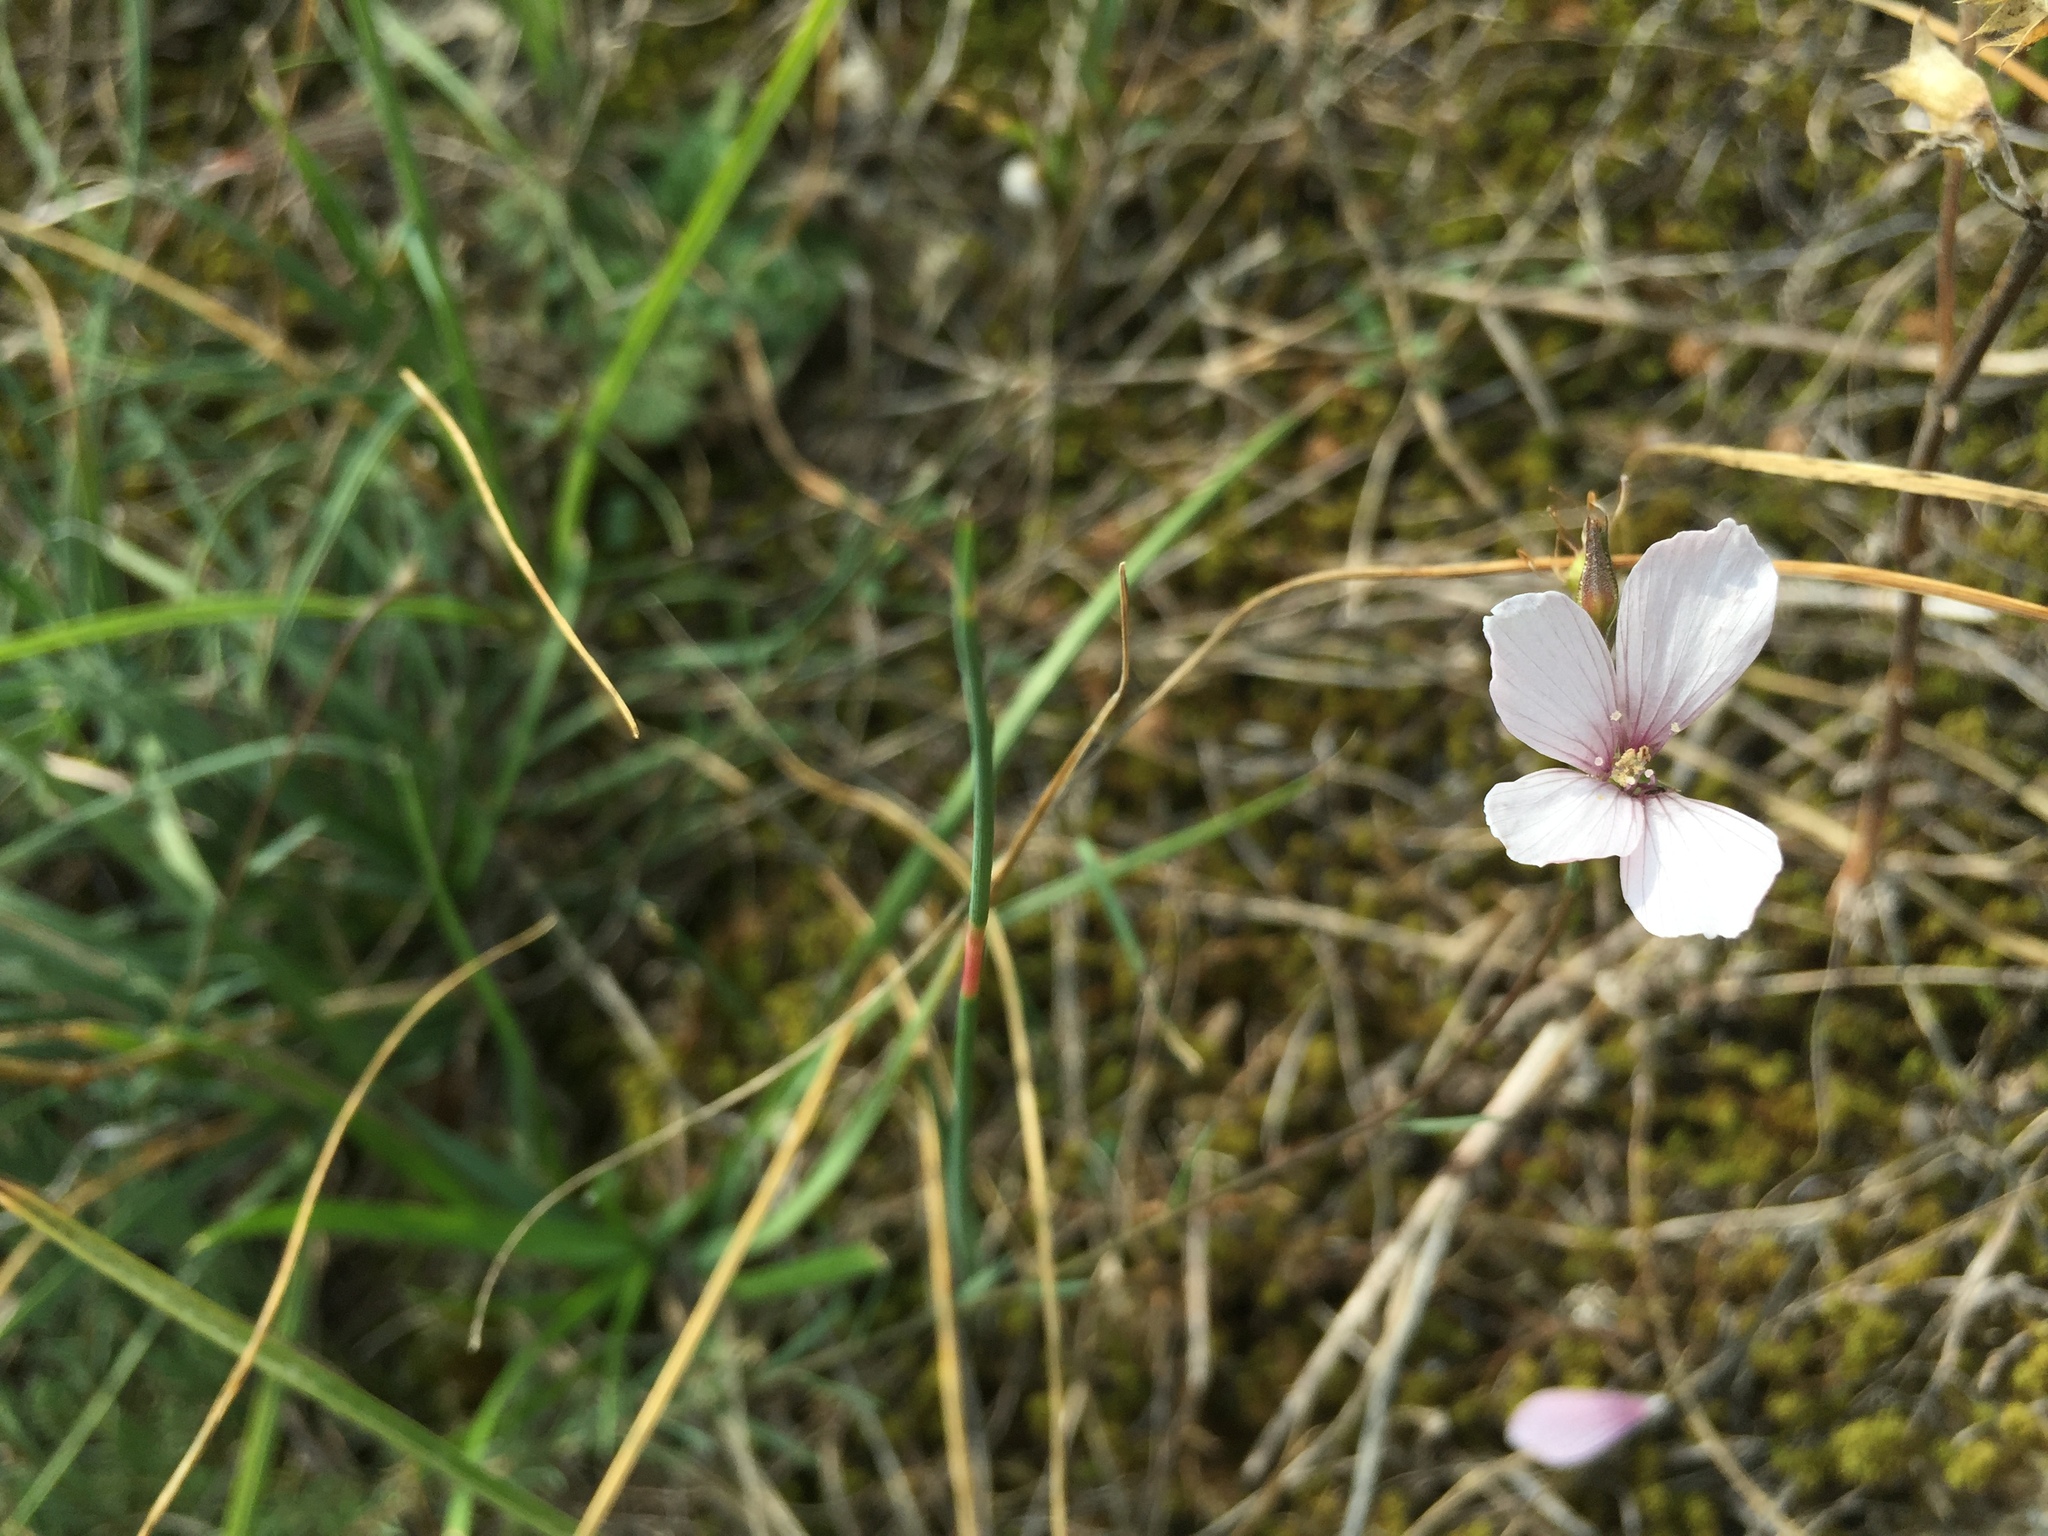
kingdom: Plantae
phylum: Tracheophyta
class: Magnoliopsida
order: Malpighiales
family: Linaceae
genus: Linum
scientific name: Linum tenuifolium
